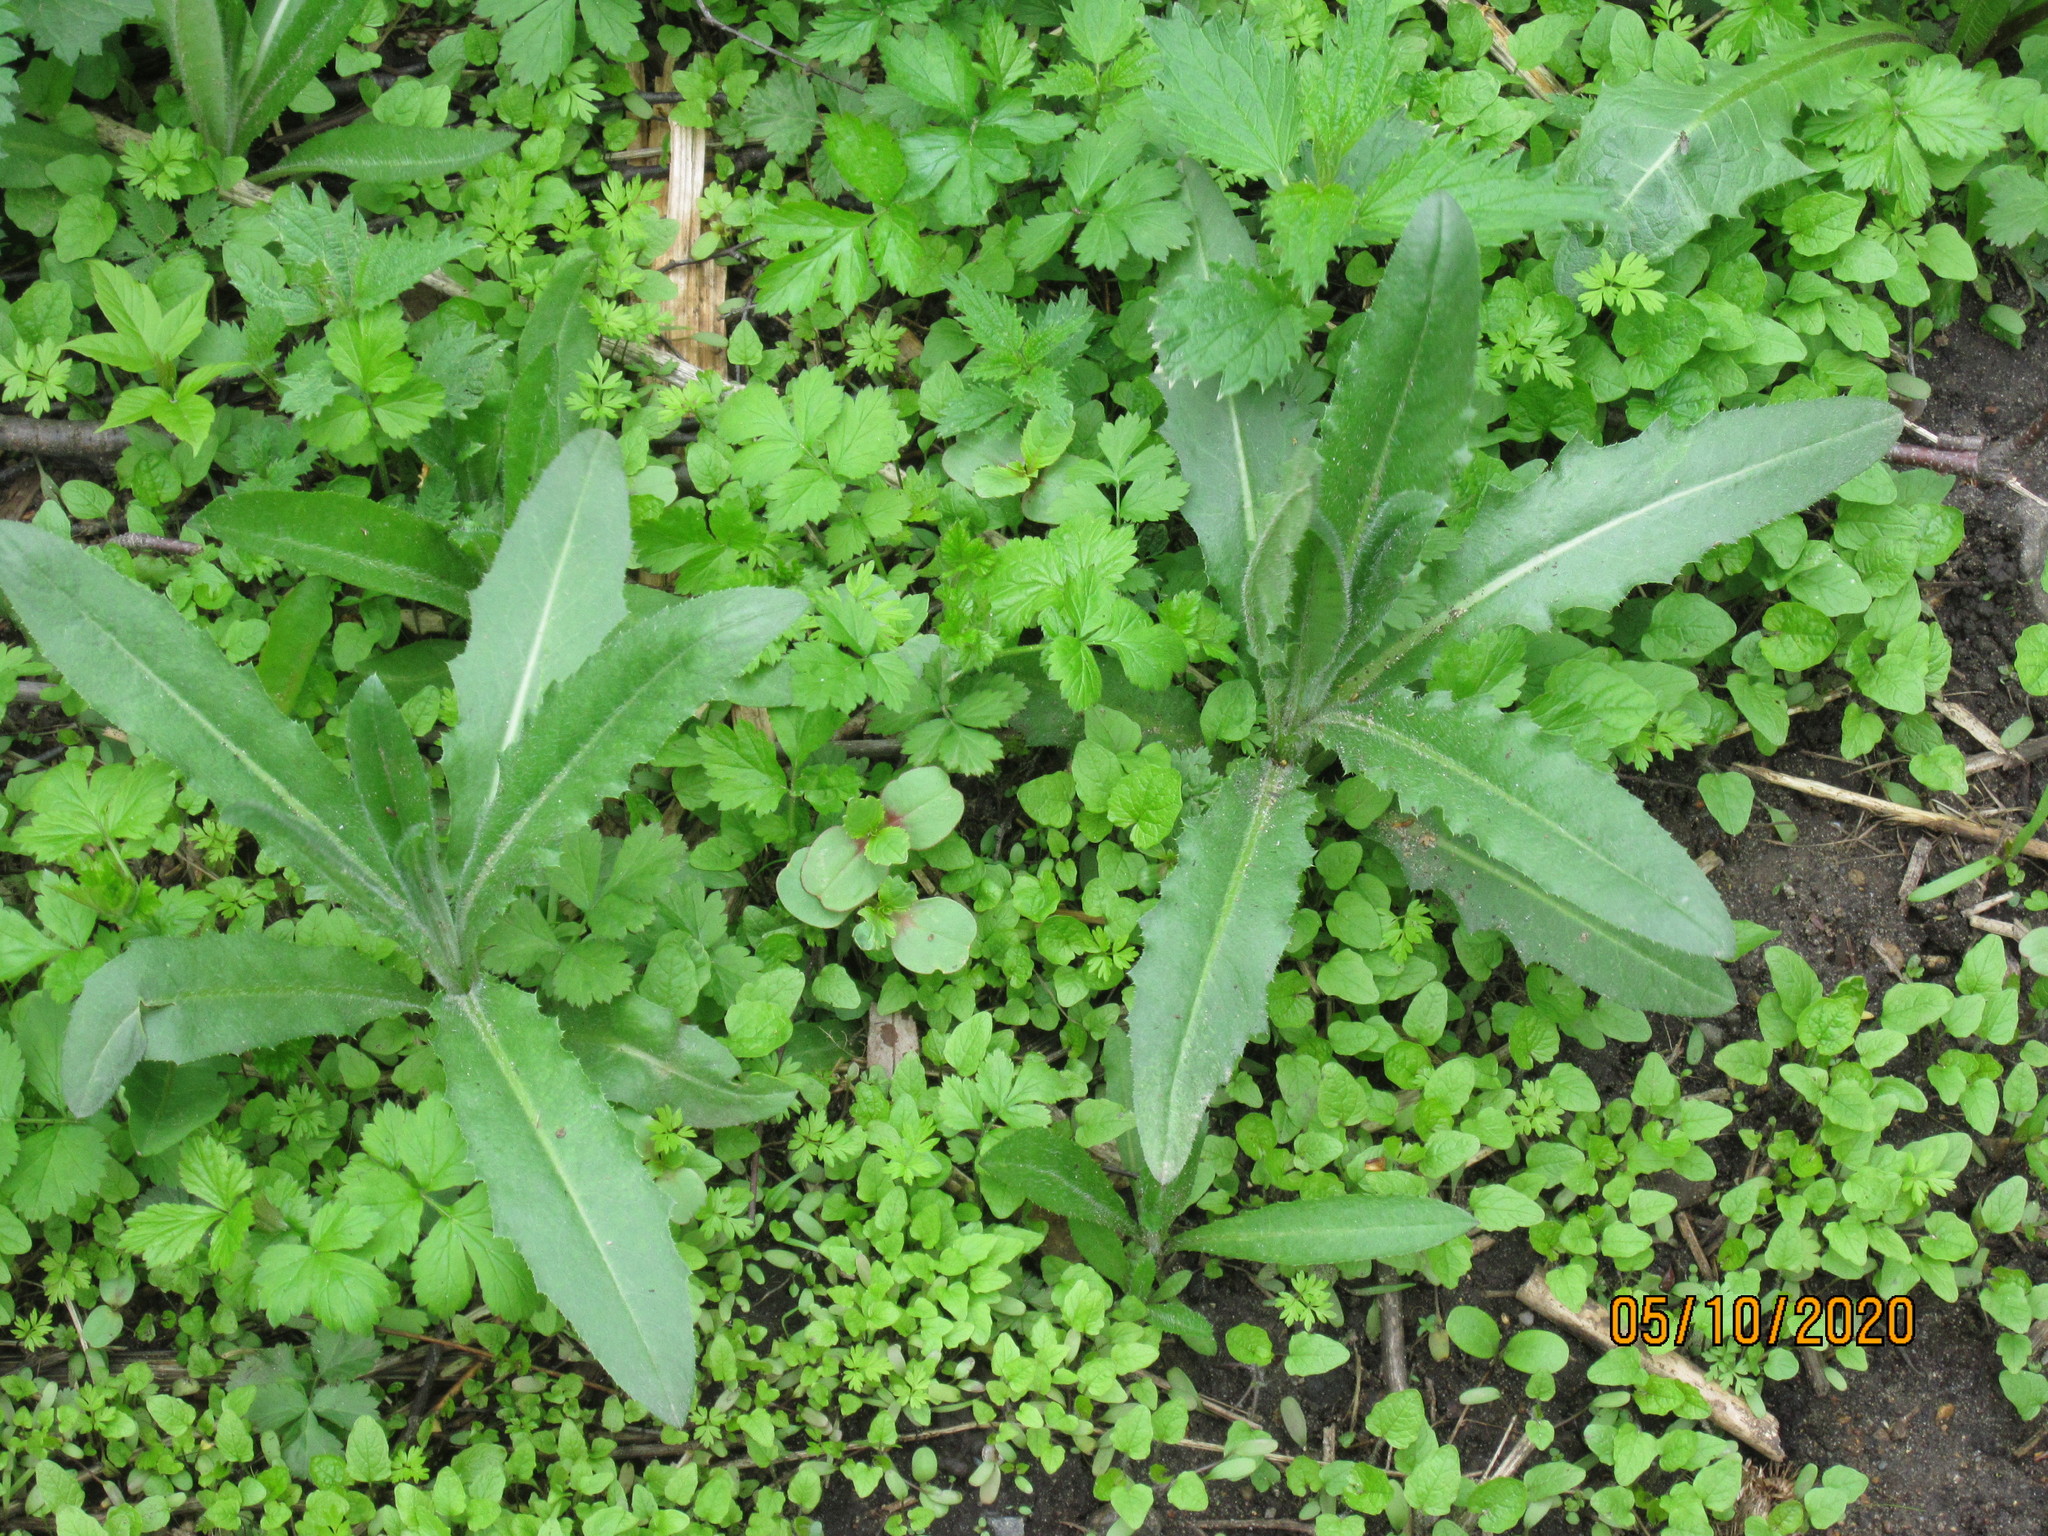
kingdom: Plantae
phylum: Tracheophyta
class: Magnoliopsida
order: Asterales
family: Asteraceae
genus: Cirsium
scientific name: Cirsium arvense
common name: Creeping thistle
